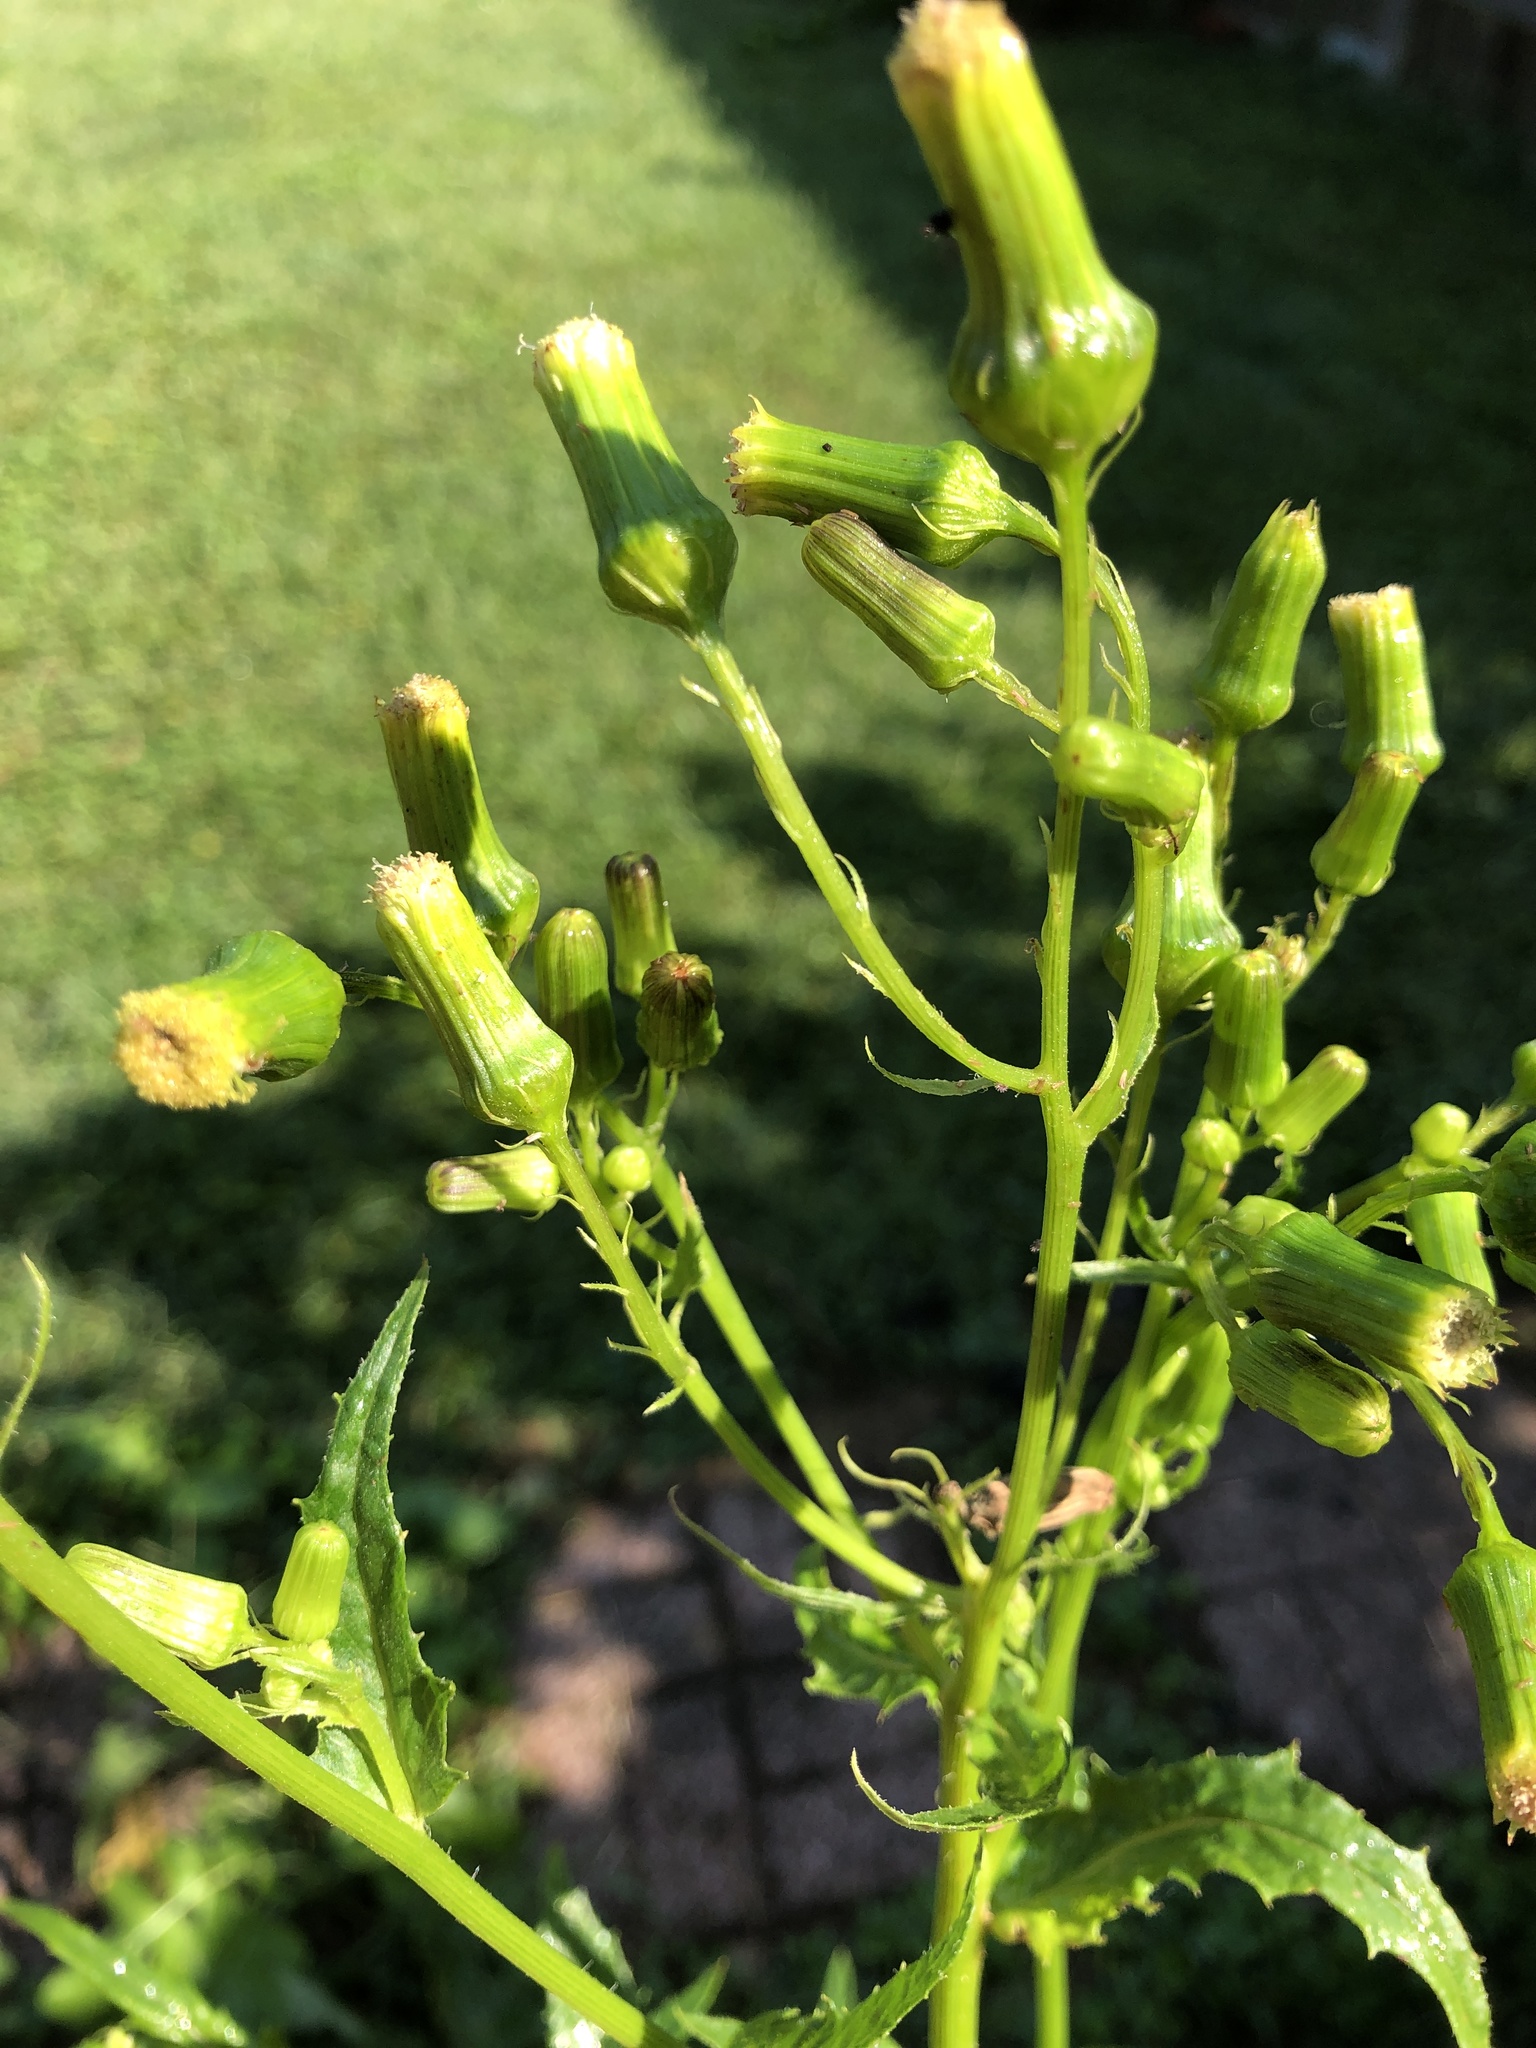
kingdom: Plantae
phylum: Tracheophyta
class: Magnoliopsida
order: Asterales
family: Asteraceae
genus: Erechtites
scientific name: Erechtites hieraciifolius
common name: American burnweed
